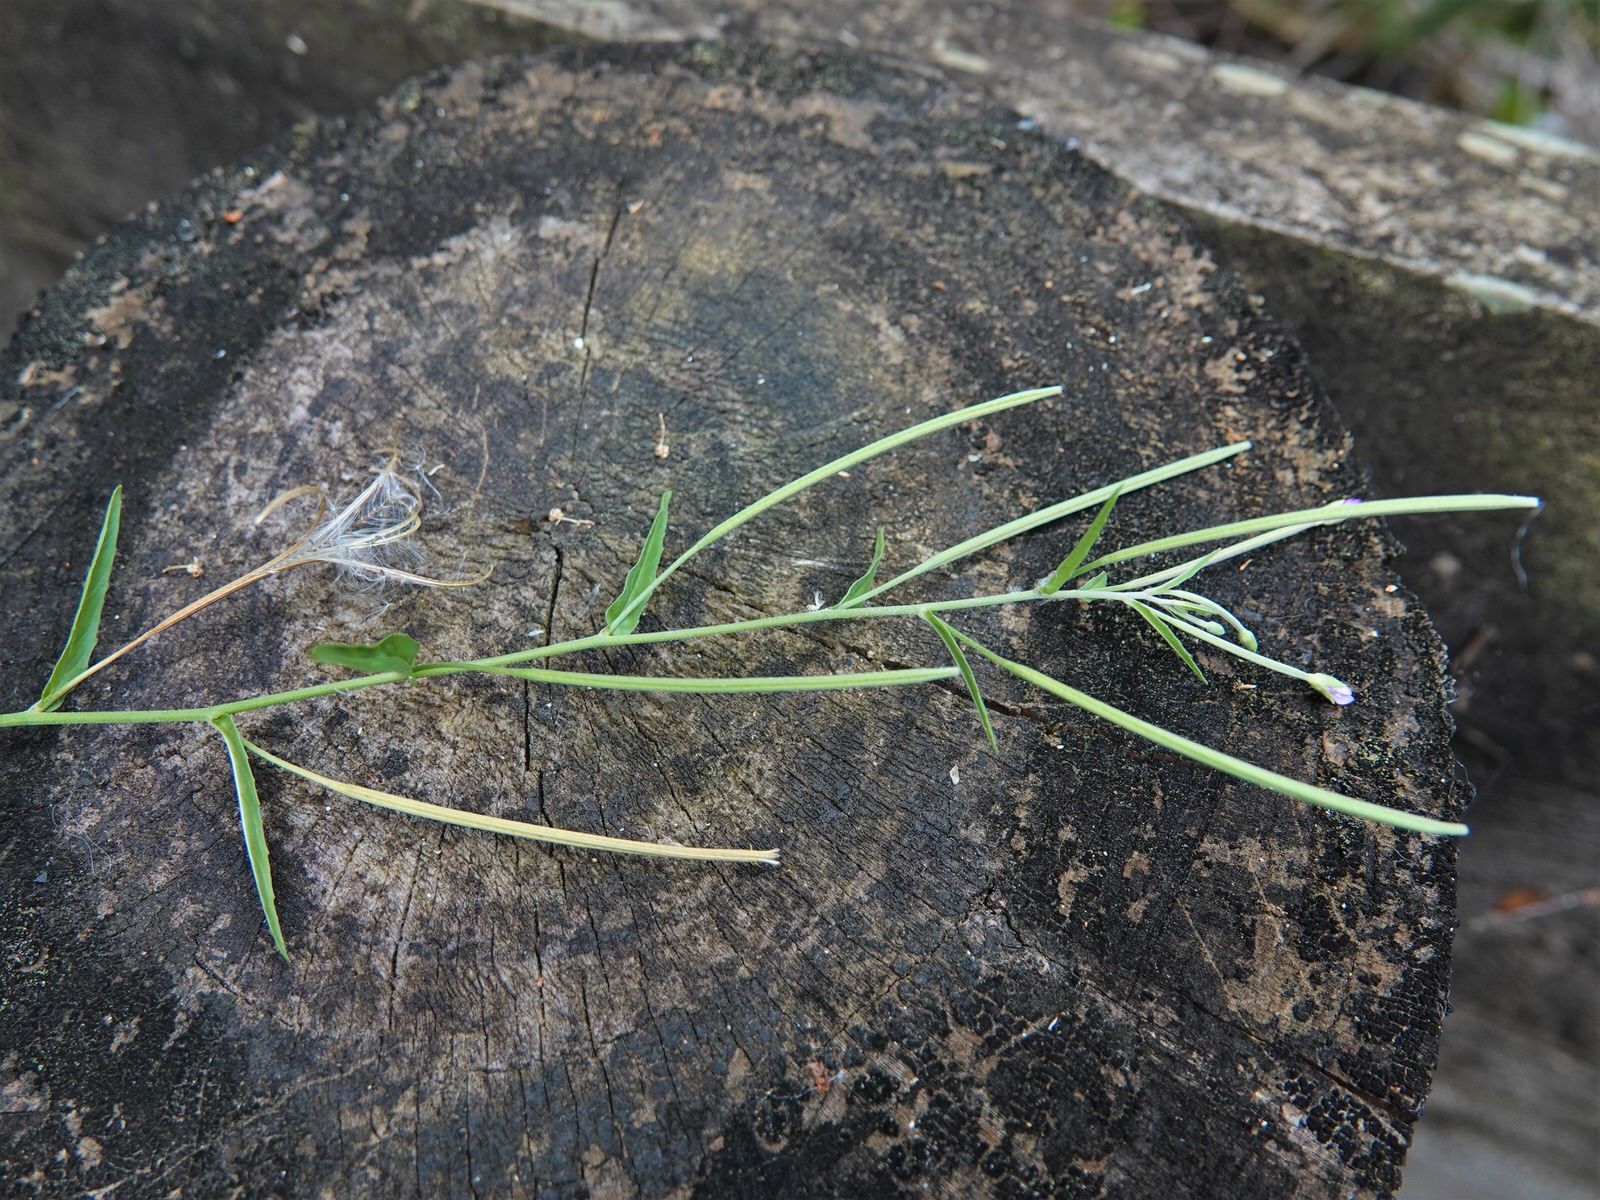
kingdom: Plantae
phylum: Tracheophyta
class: Magnoliopsida
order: Myrtales
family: Onagraceae
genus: Epilobium
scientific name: Epilobium ciliatum
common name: American willowherb
